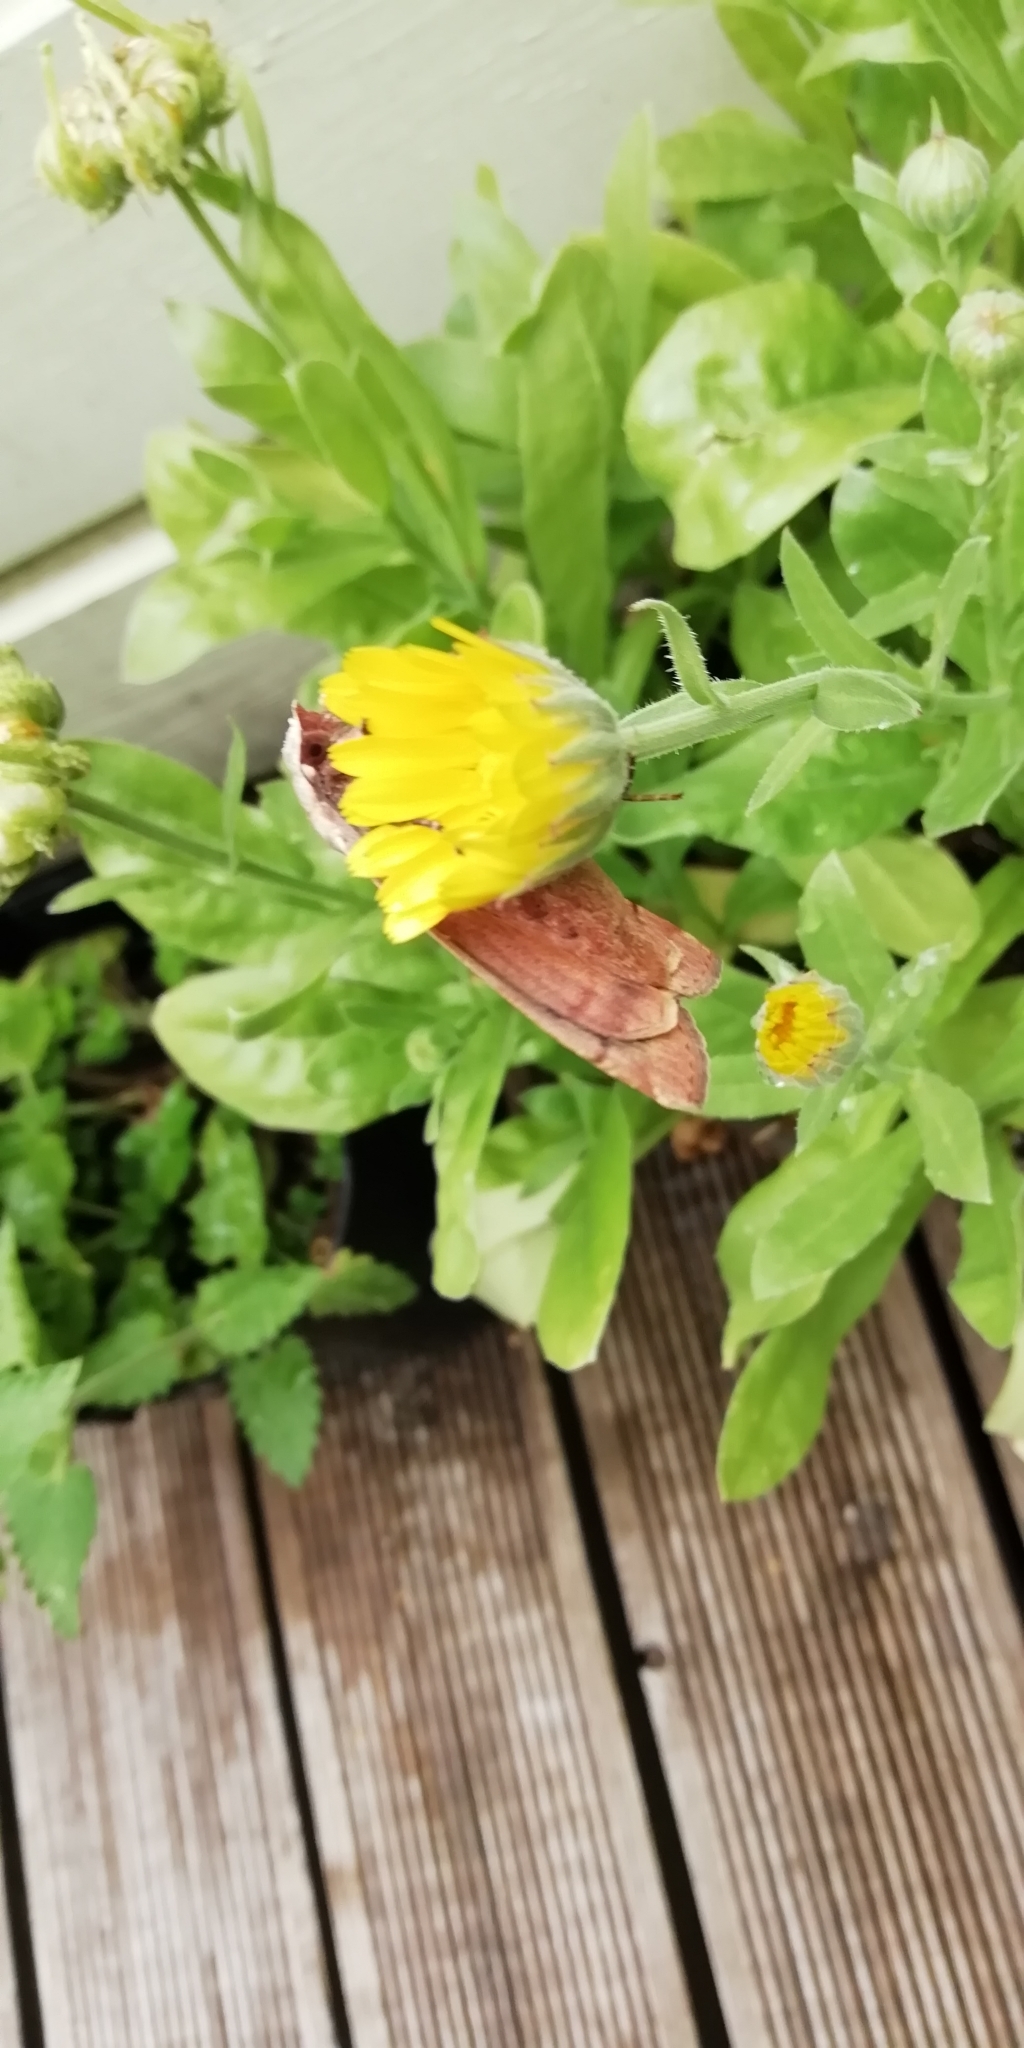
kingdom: Animalia
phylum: Arthropoda
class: Insecta
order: Lepidoptera
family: Noctuidae
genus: Noctua
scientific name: Noctua pronuba
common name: Large yellow underwing
